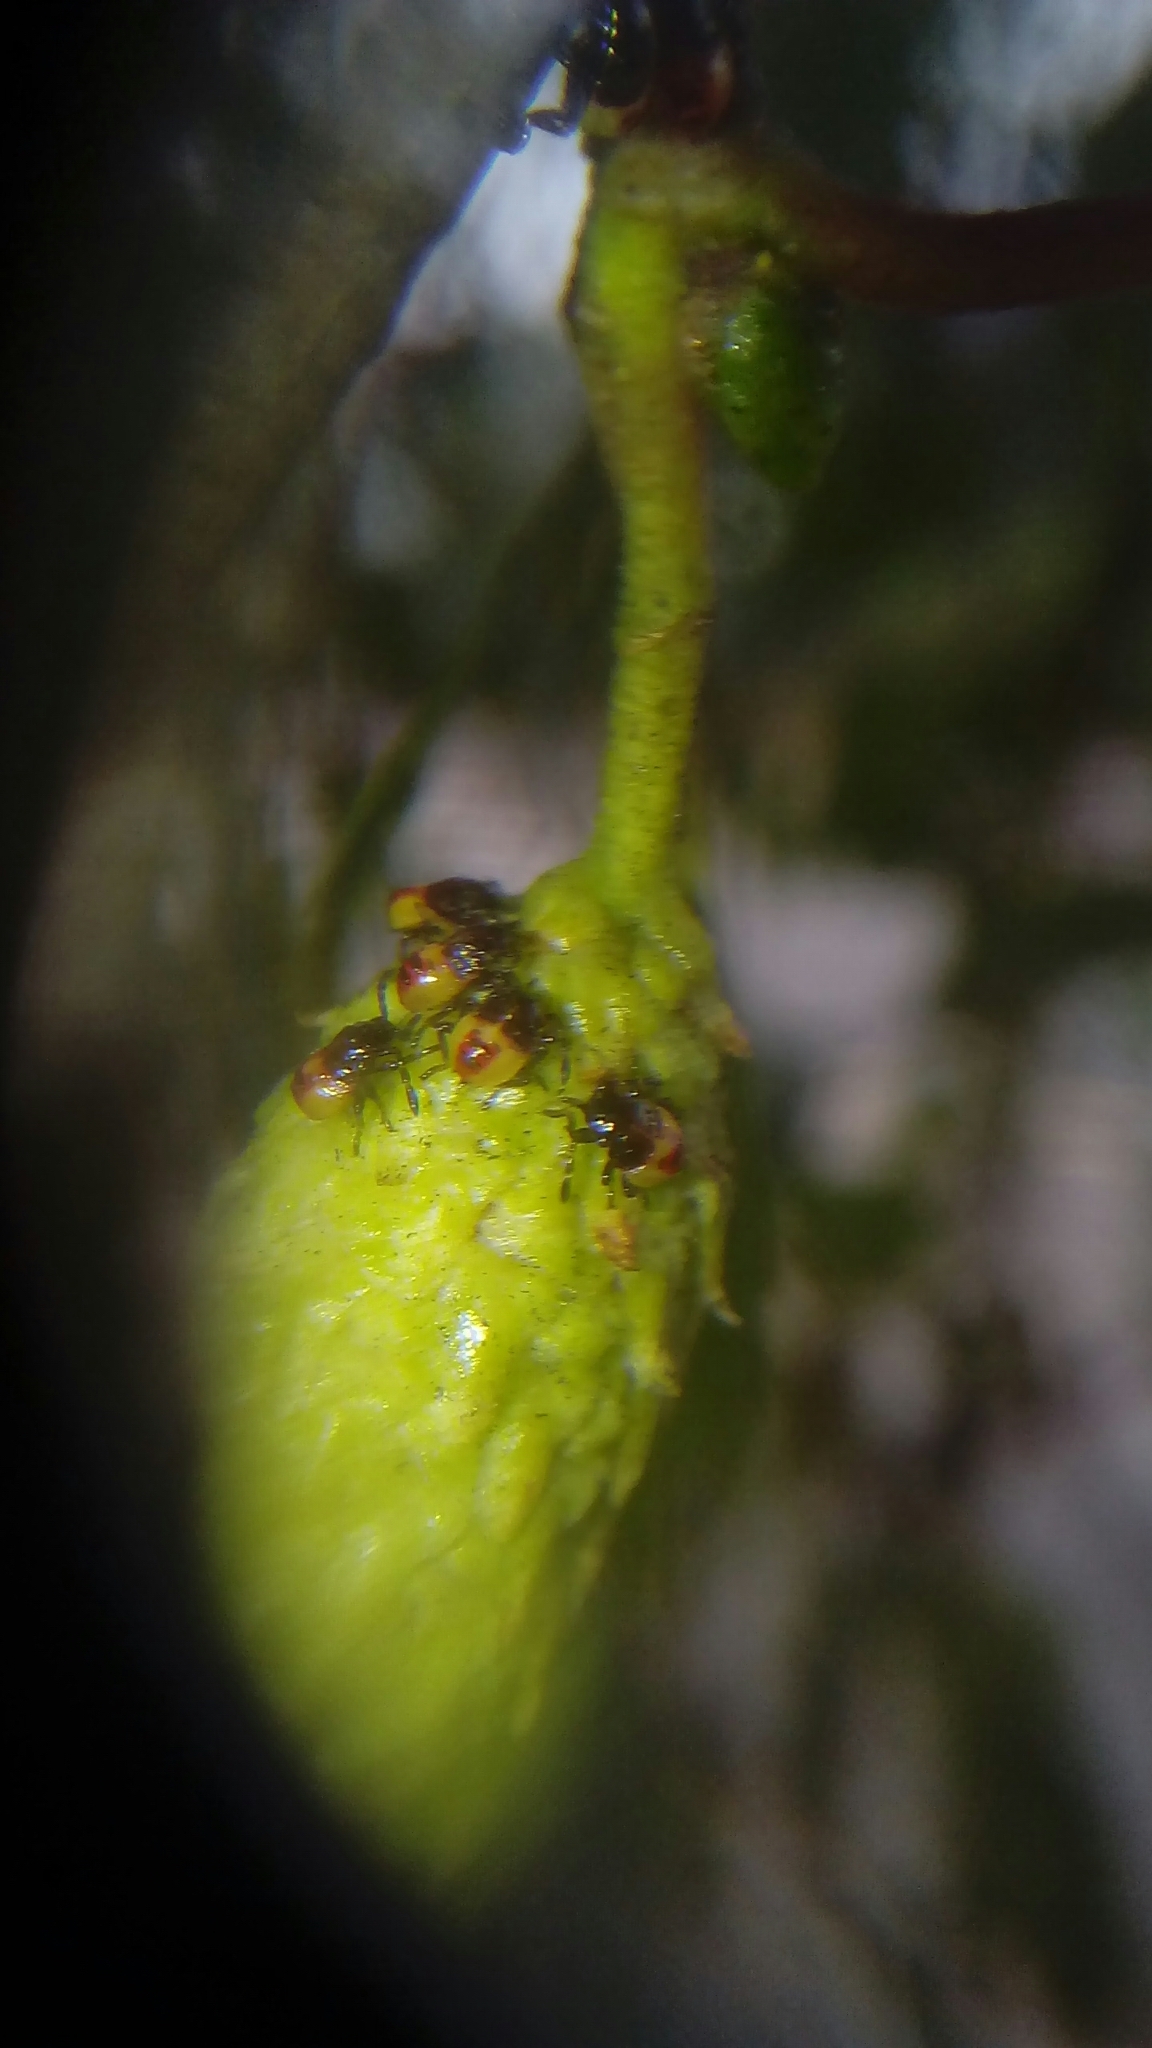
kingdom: Animalia
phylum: Arthropoda
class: Insecta
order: Hemiptera
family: Acanthosomatidae
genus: Elasmostethus
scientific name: Elasmostethus interstinctus
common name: Birch shieldbug
